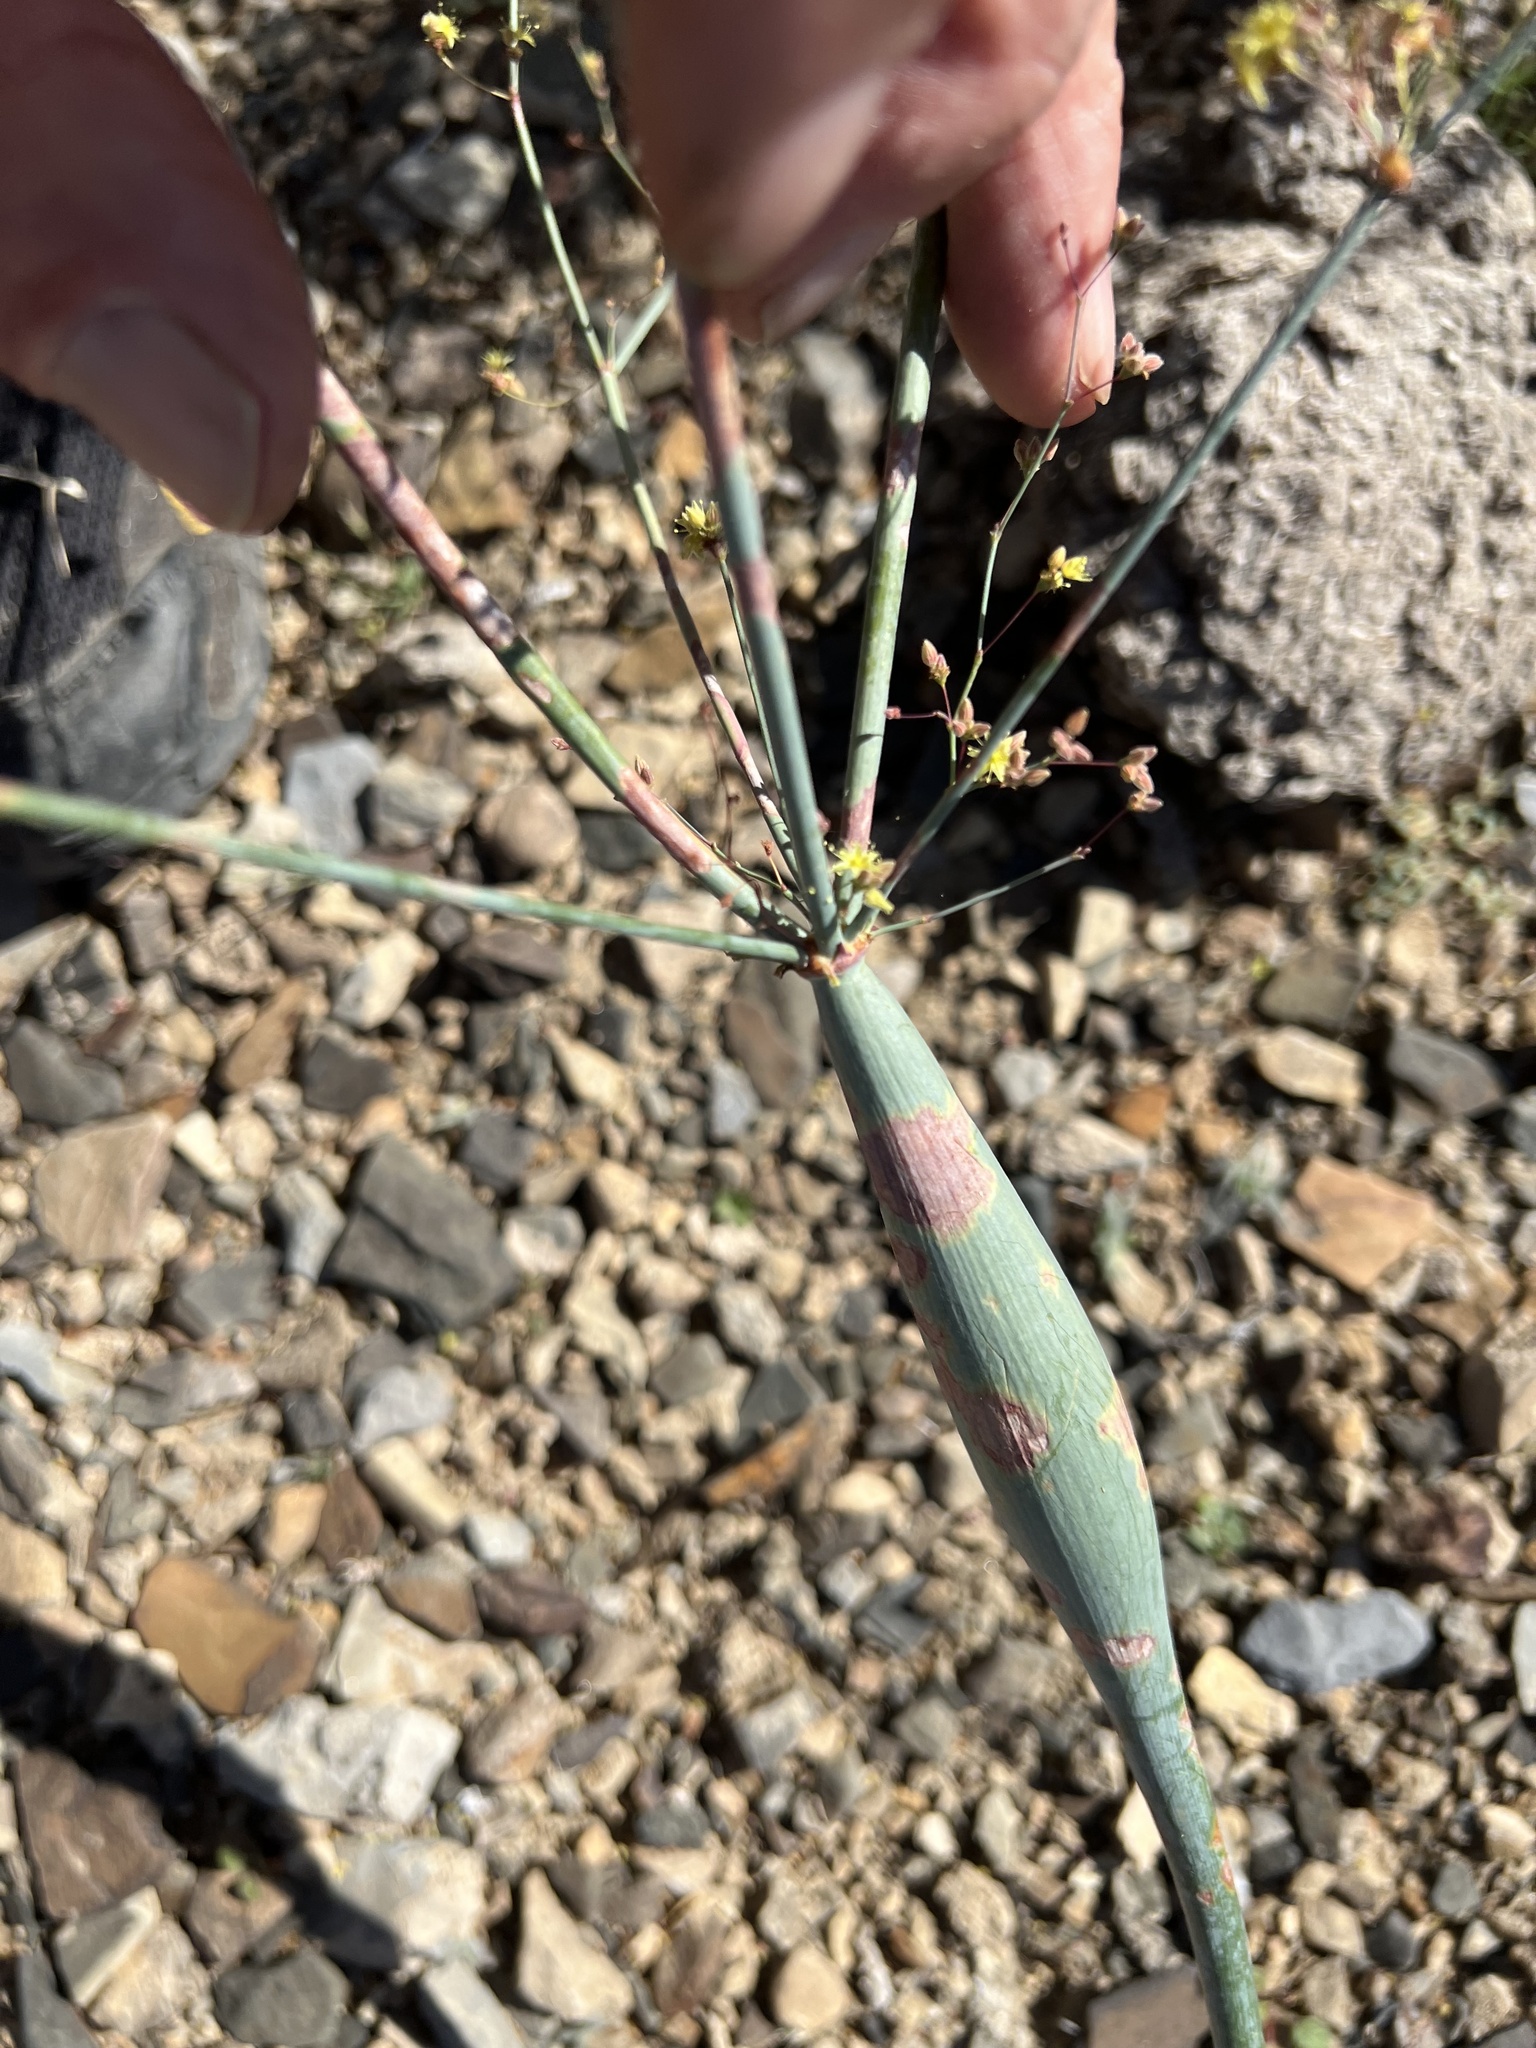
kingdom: Plantae
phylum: Tracheophyta
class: Magnoliopsida
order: Caryophyllales
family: Polygonaceae
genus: Eriogonum
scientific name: Eriogonum inflatum
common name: Desert trumpet
